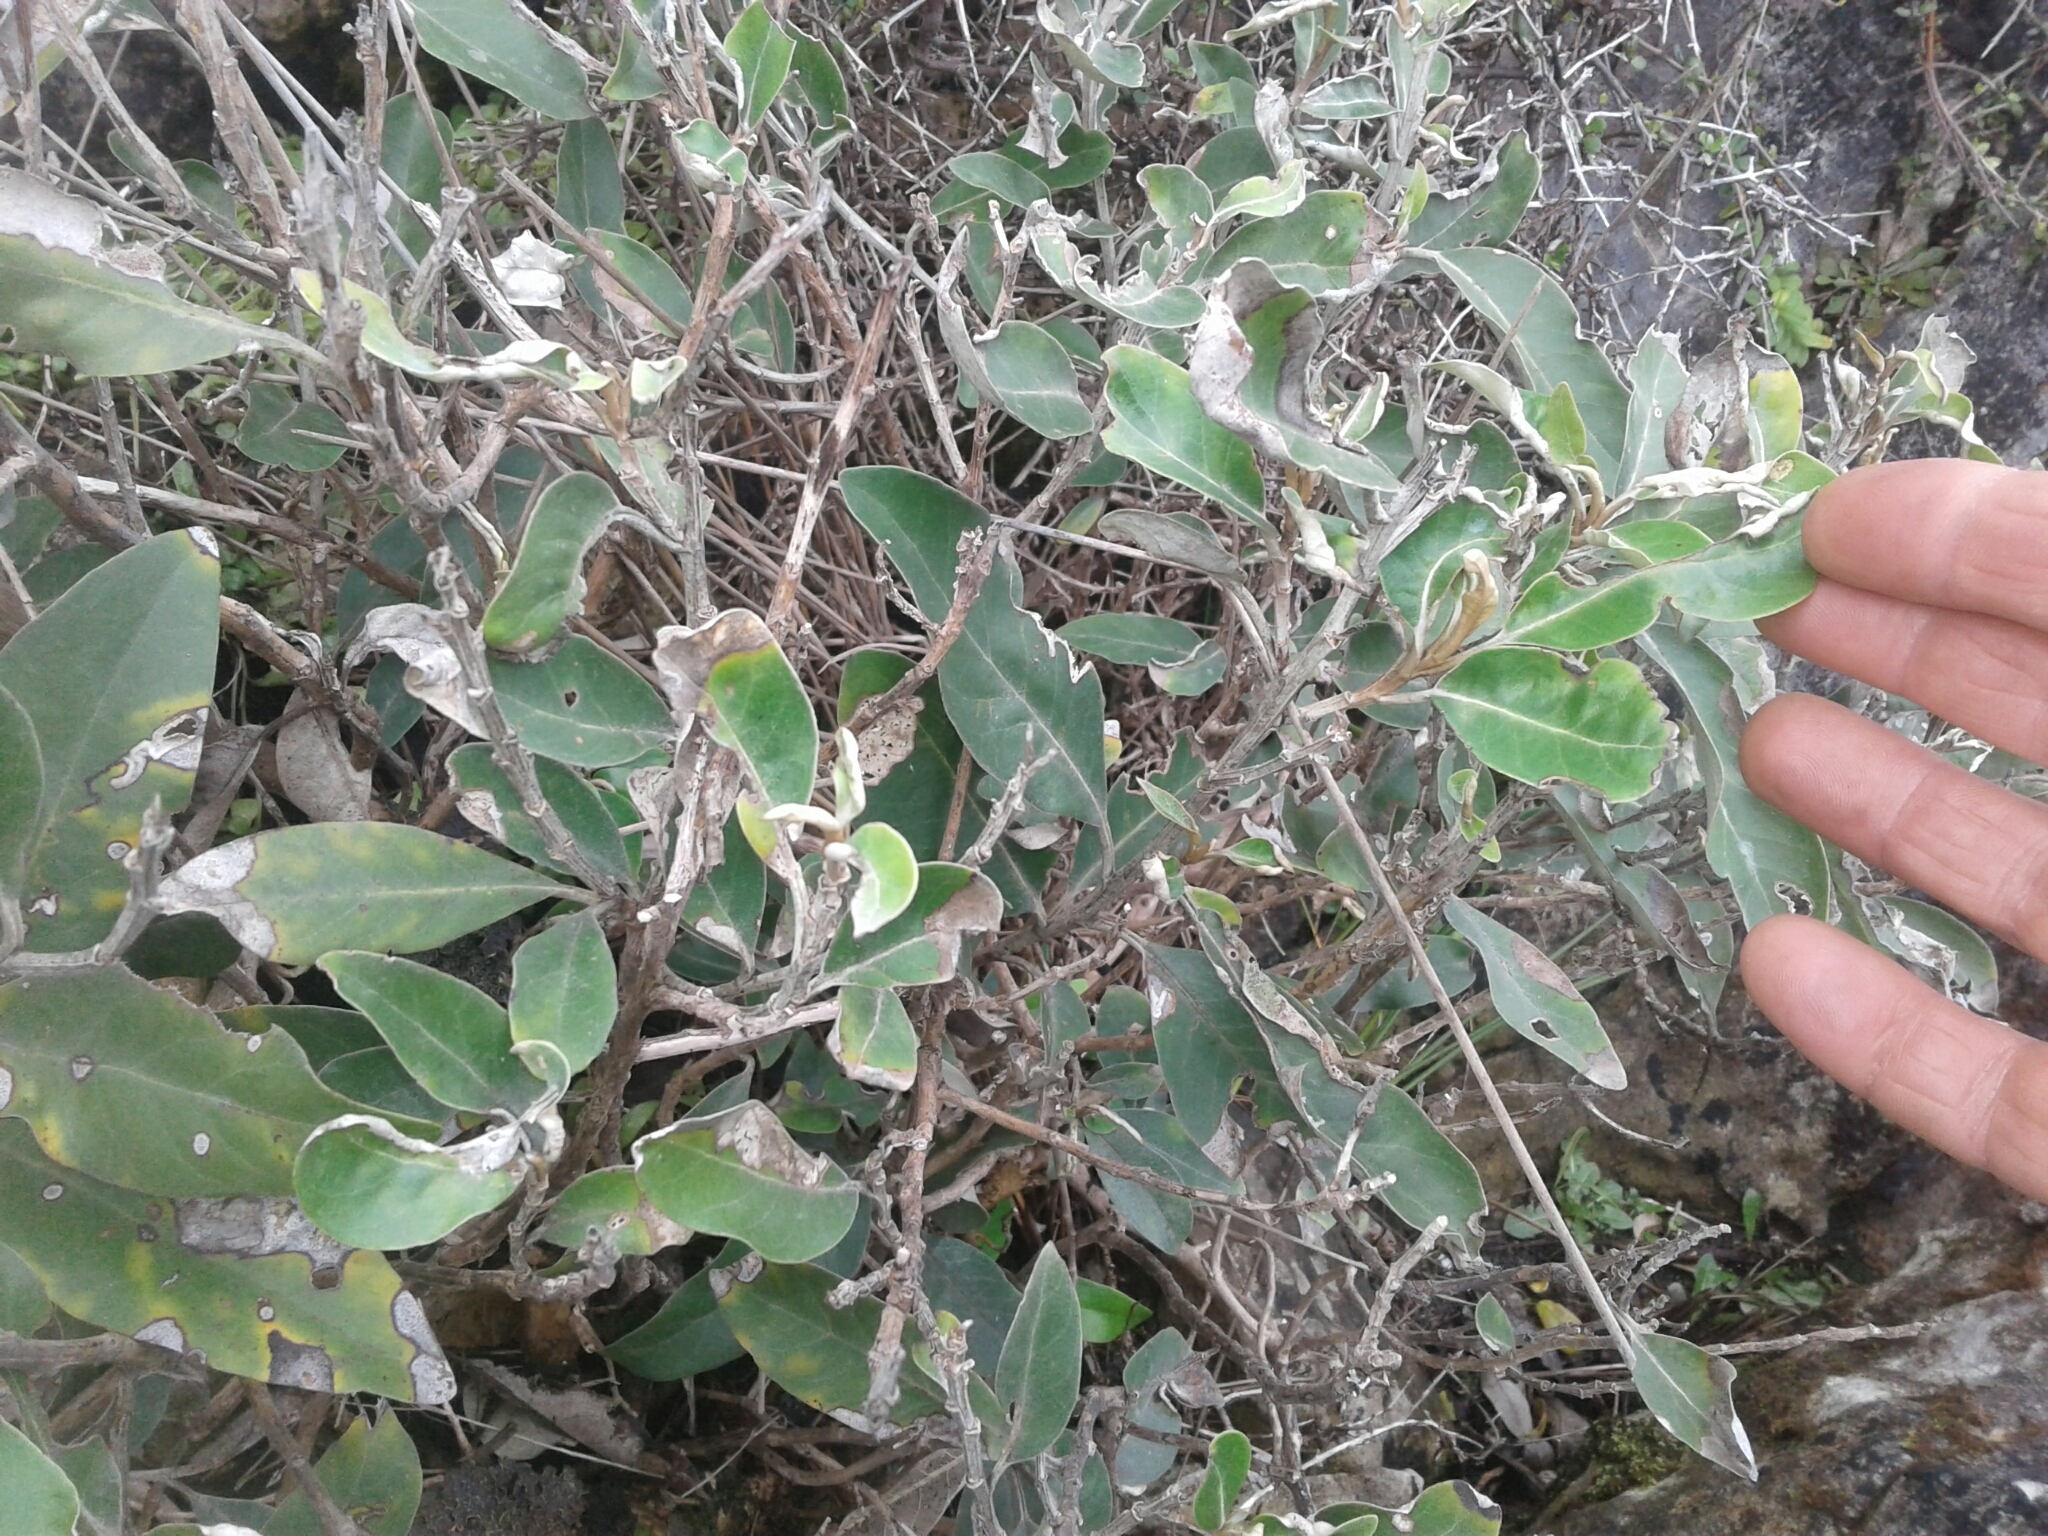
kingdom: Plantae
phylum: Tracheophyta
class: Magnoliopsida
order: Asterales
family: Asteraceae
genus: Olearia
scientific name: Olearia avicenniifolia
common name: Mangrove-leaf daisybush
